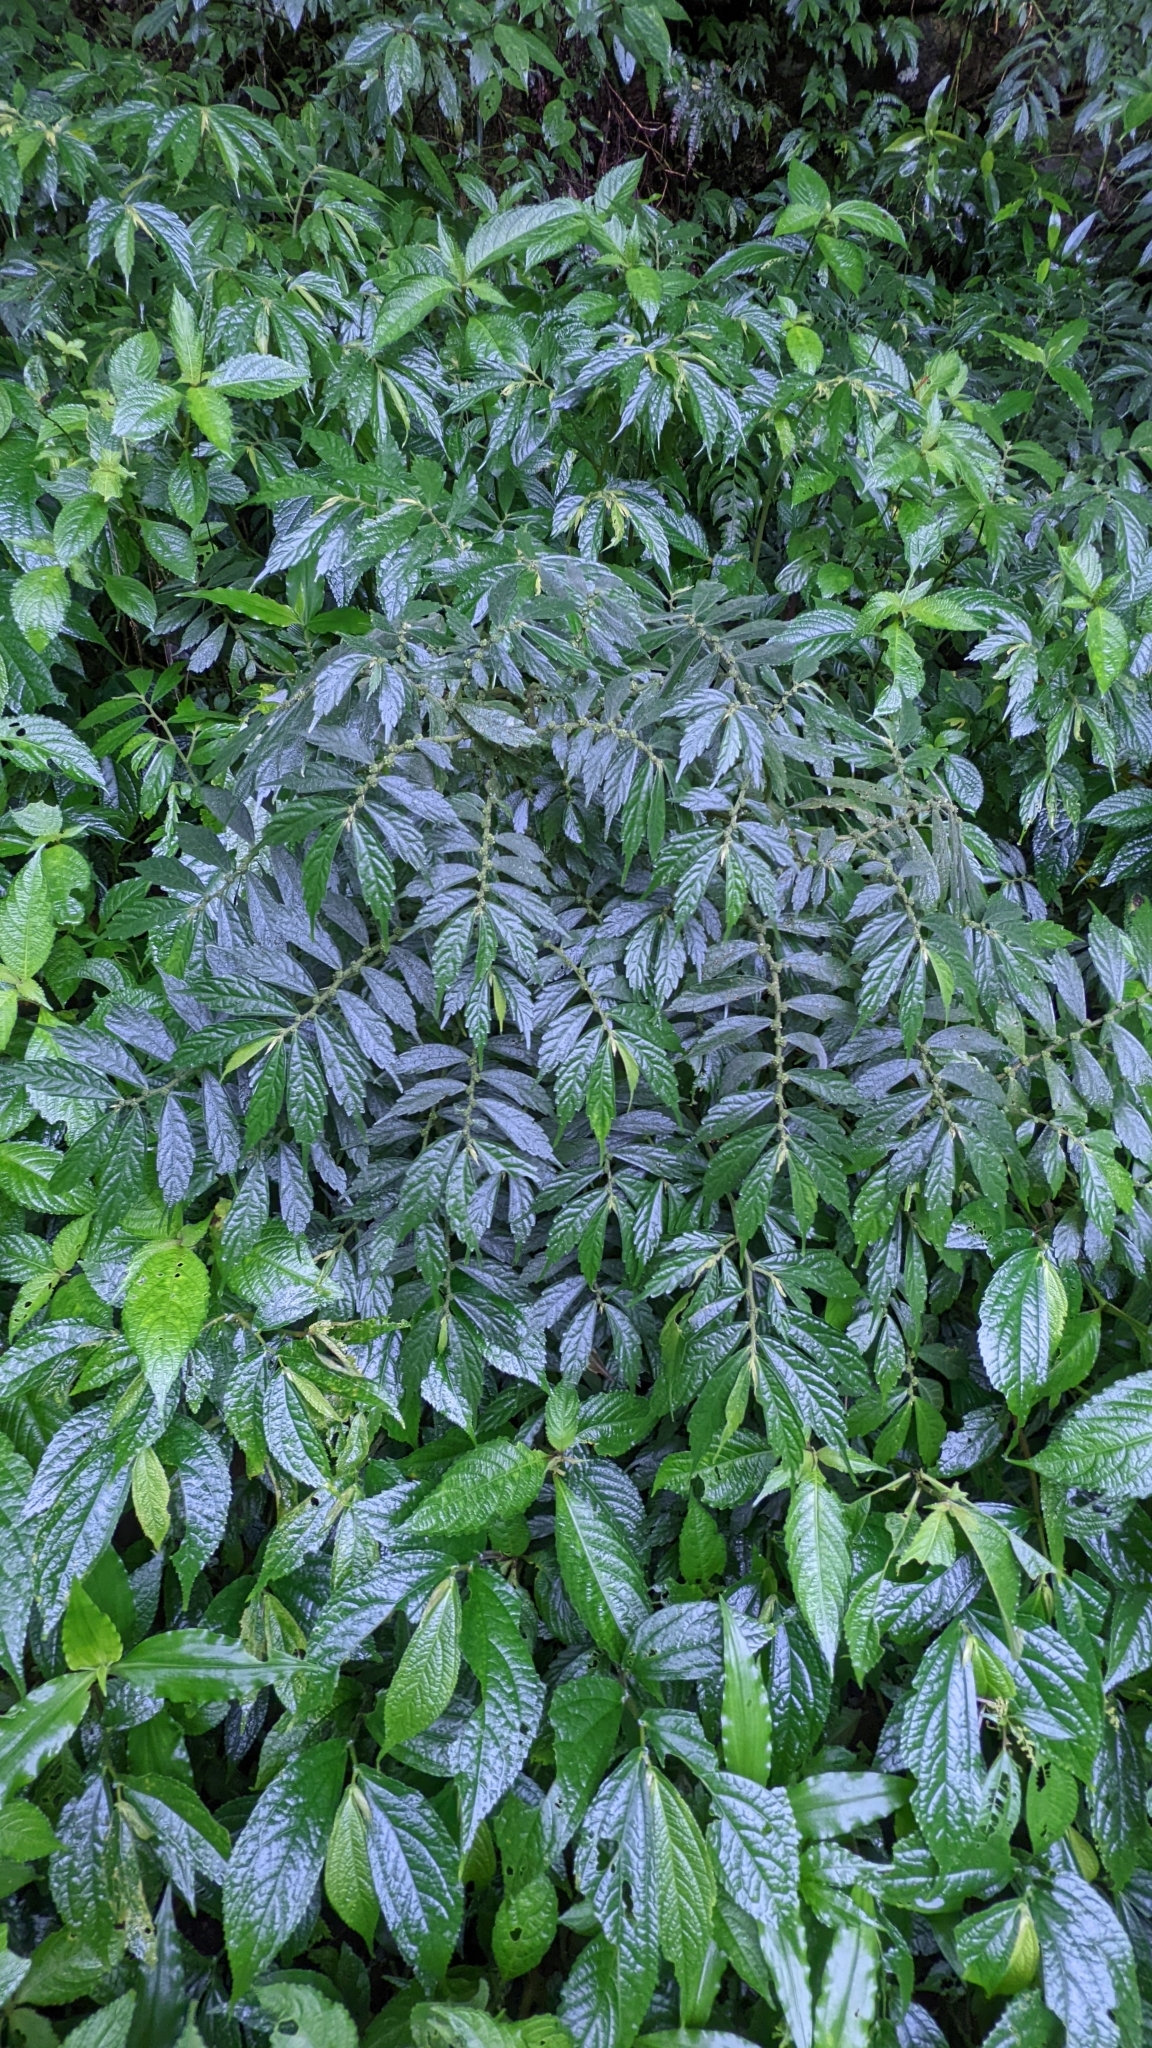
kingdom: Plantae
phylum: Tracheophyta
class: Magnoliopsida
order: Rosales
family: Urticaceae
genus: Elatostema
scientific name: Elatostema lineolatum
